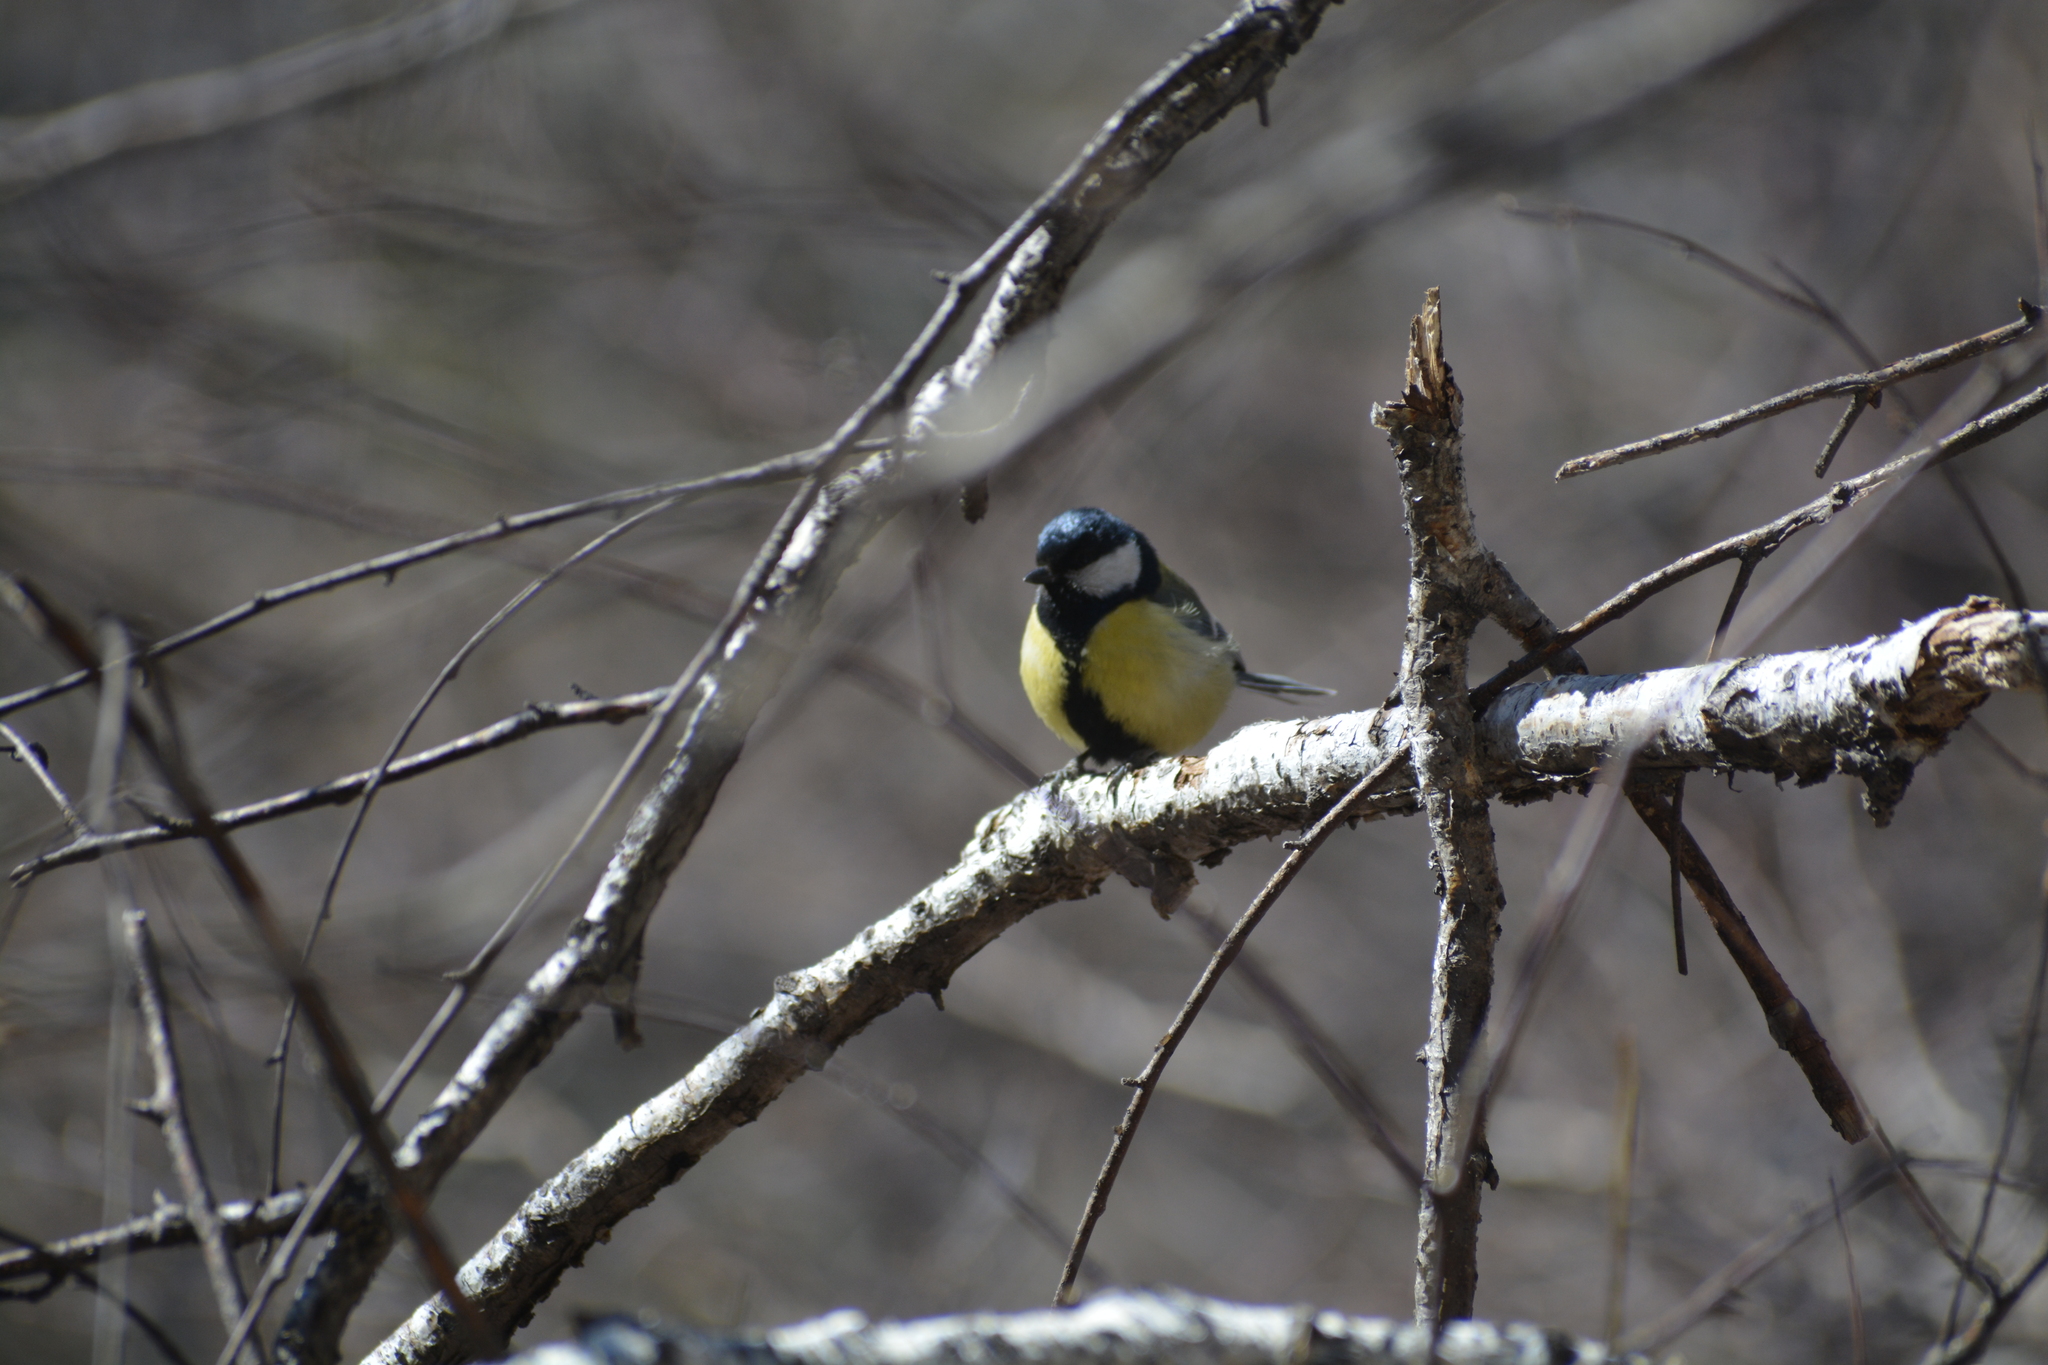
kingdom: Animalia
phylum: Chordata
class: Aves
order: Passeriformes
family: Paridae
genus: Parus
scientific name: Parus major
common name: Great tit
